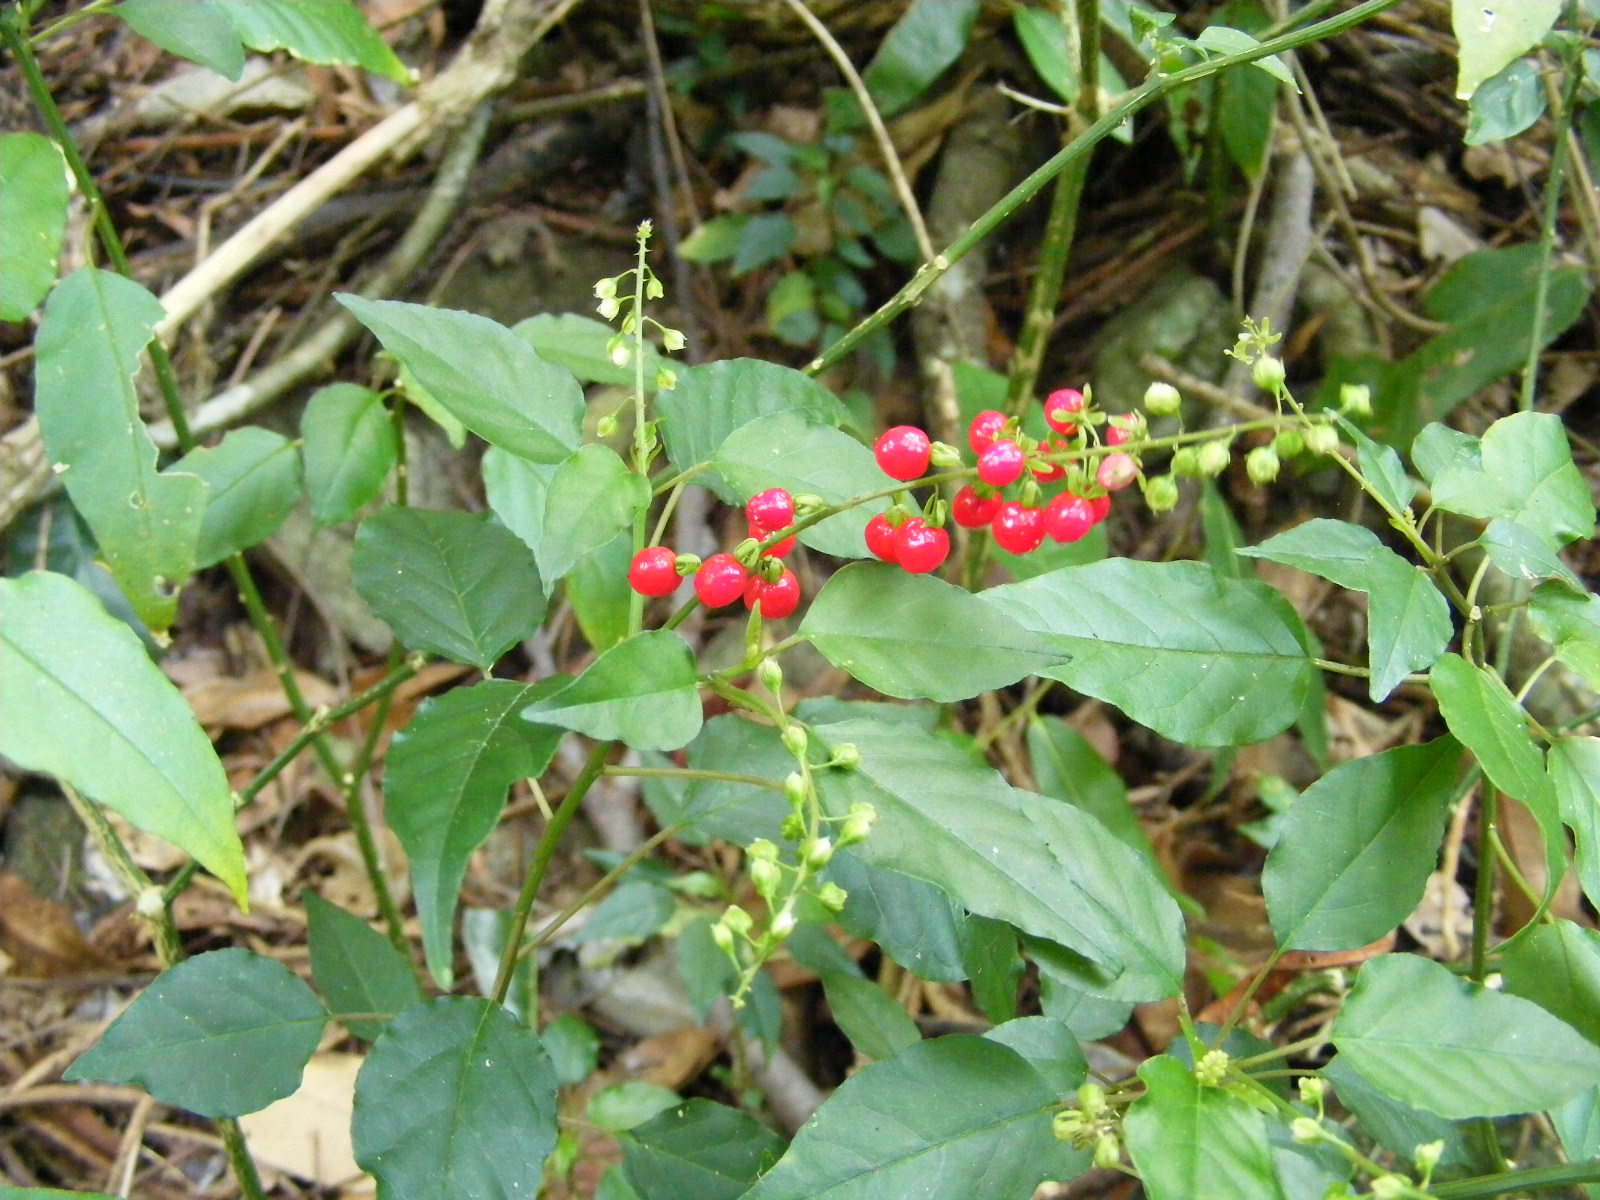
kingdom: Plantae
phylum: Tracheophyta
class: Magnoliopsida
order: Caryophyllales
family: Phytolaccaceae
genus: Rivina
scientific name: Rivina humilis
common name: Rougeplant
